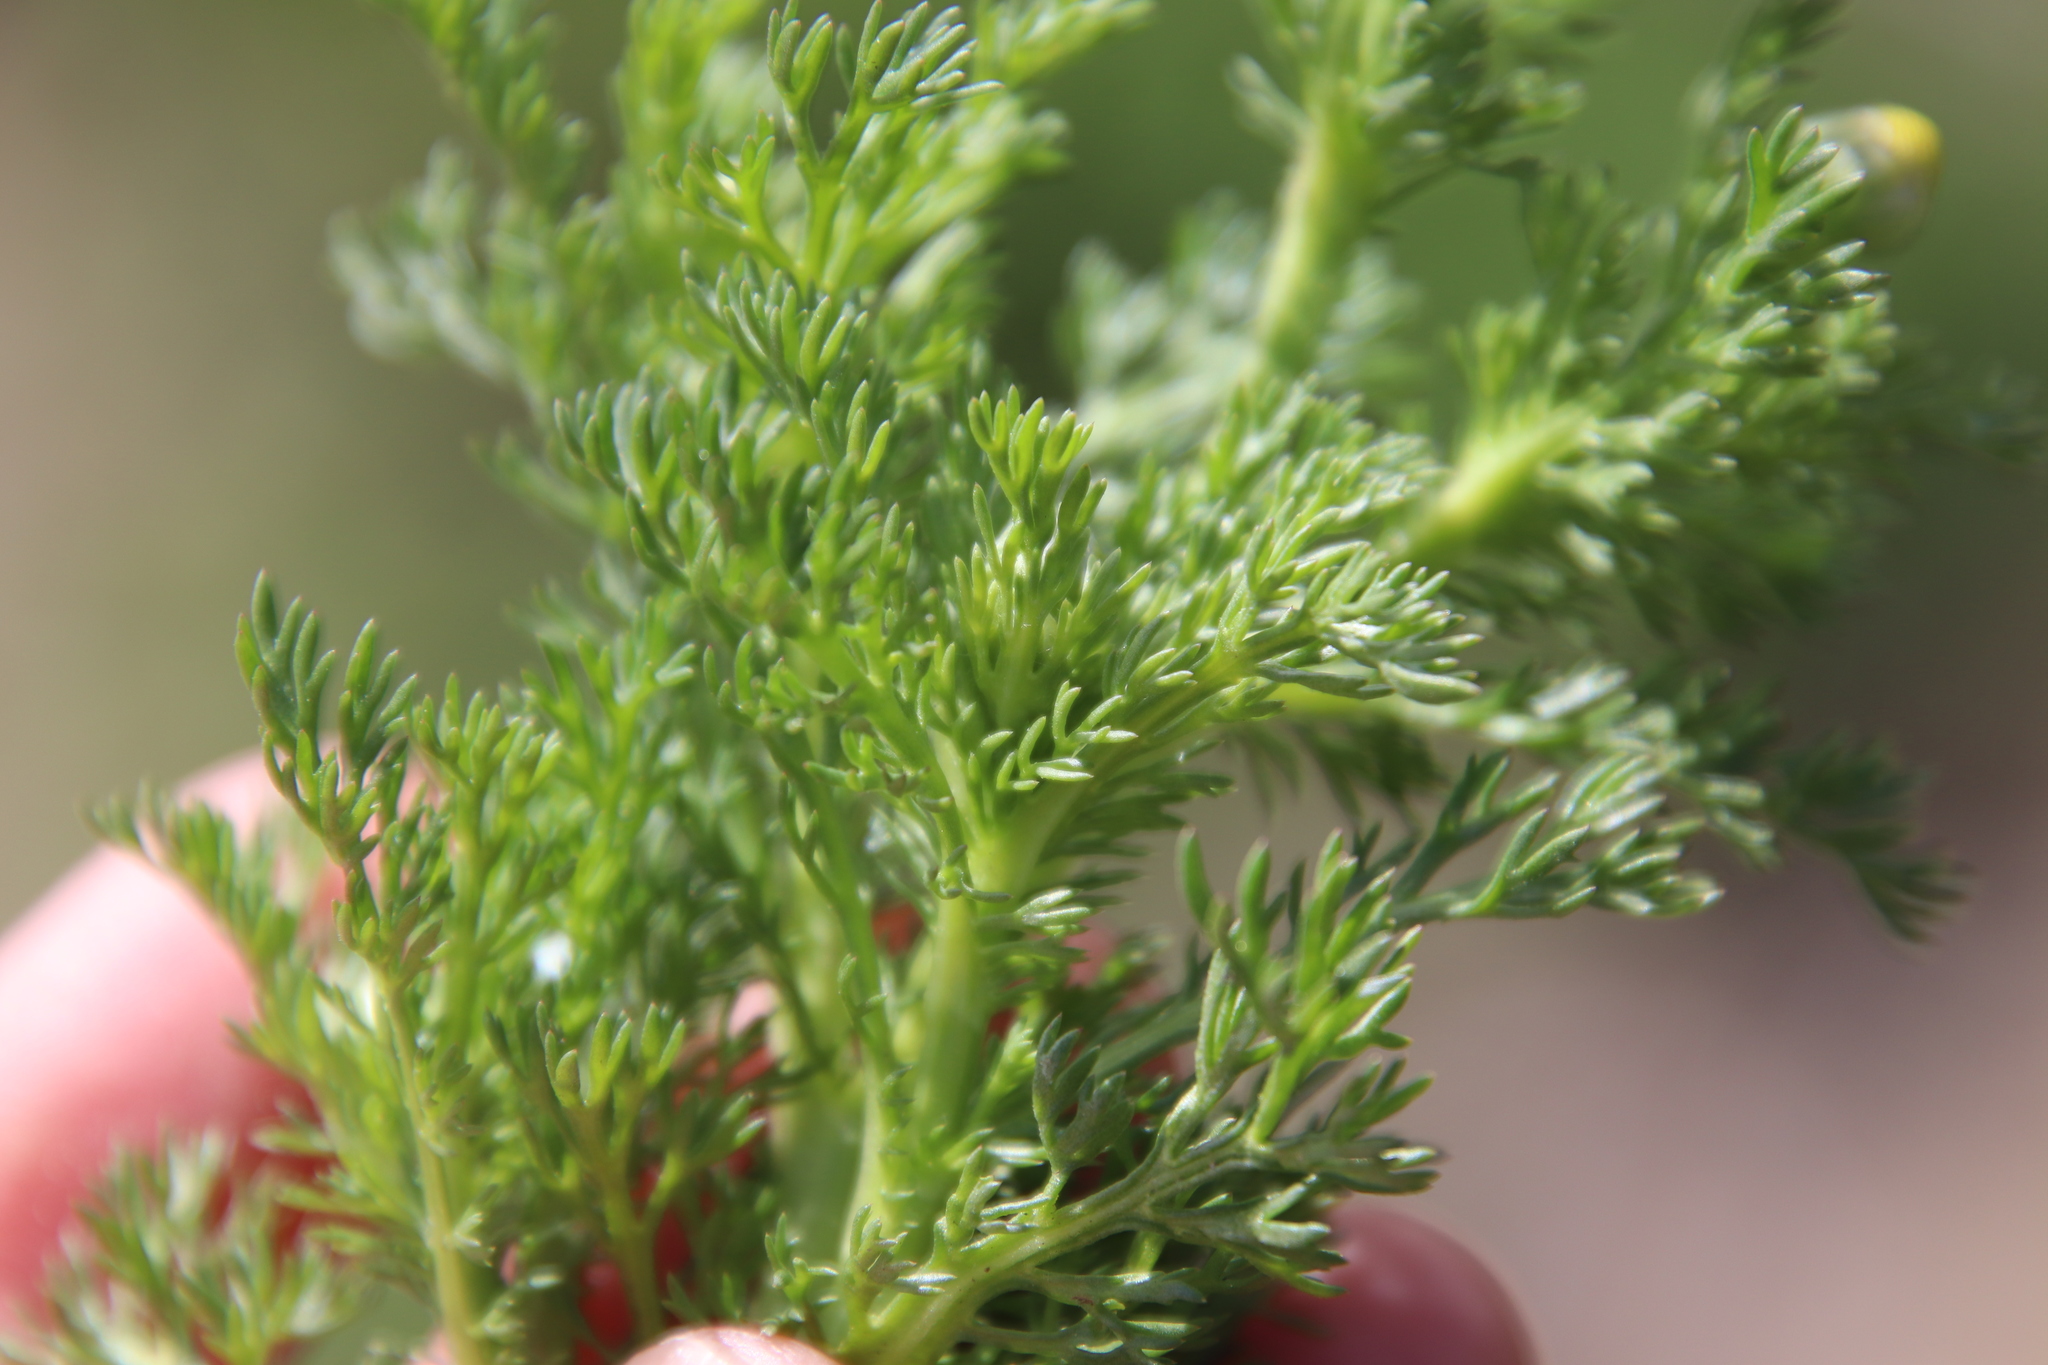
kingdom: Plantae
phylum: Tracheophyta
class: Magnoliopsida
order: Asterales
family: Asteraceae
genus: Matricaria
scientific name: Matricaria discoidea
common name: Disc mayweed
